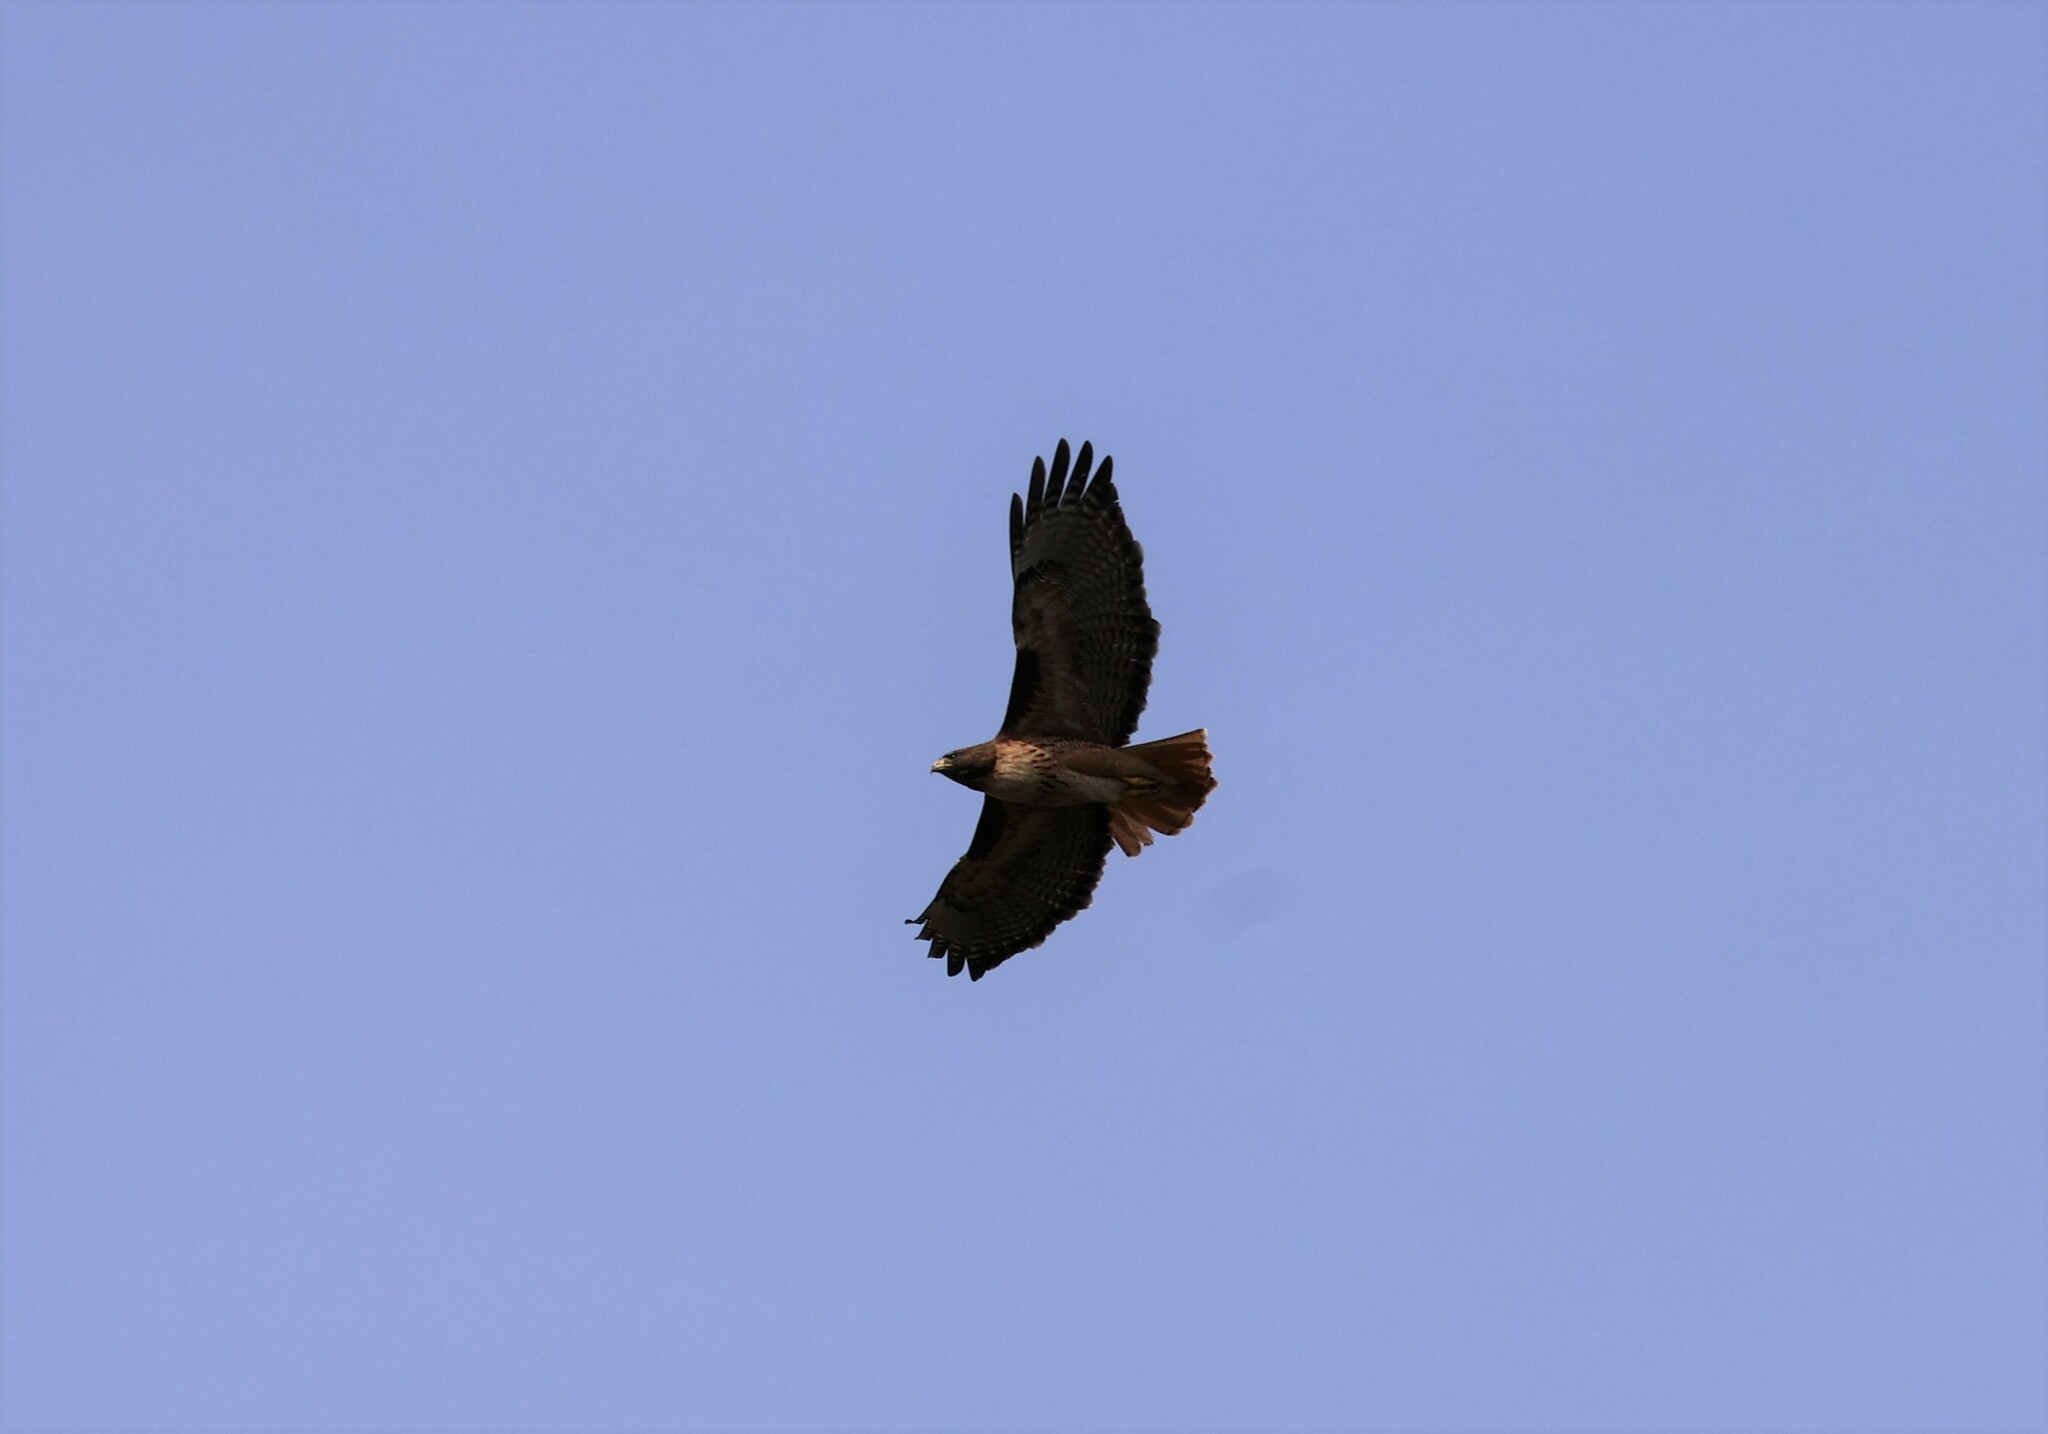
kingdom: Animalia
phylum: Chordata
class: Aves
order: Accipitriformes
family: Accipitridae
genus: Buteo
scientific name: Buteo jamaicensis
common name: Red-tailed hawk
